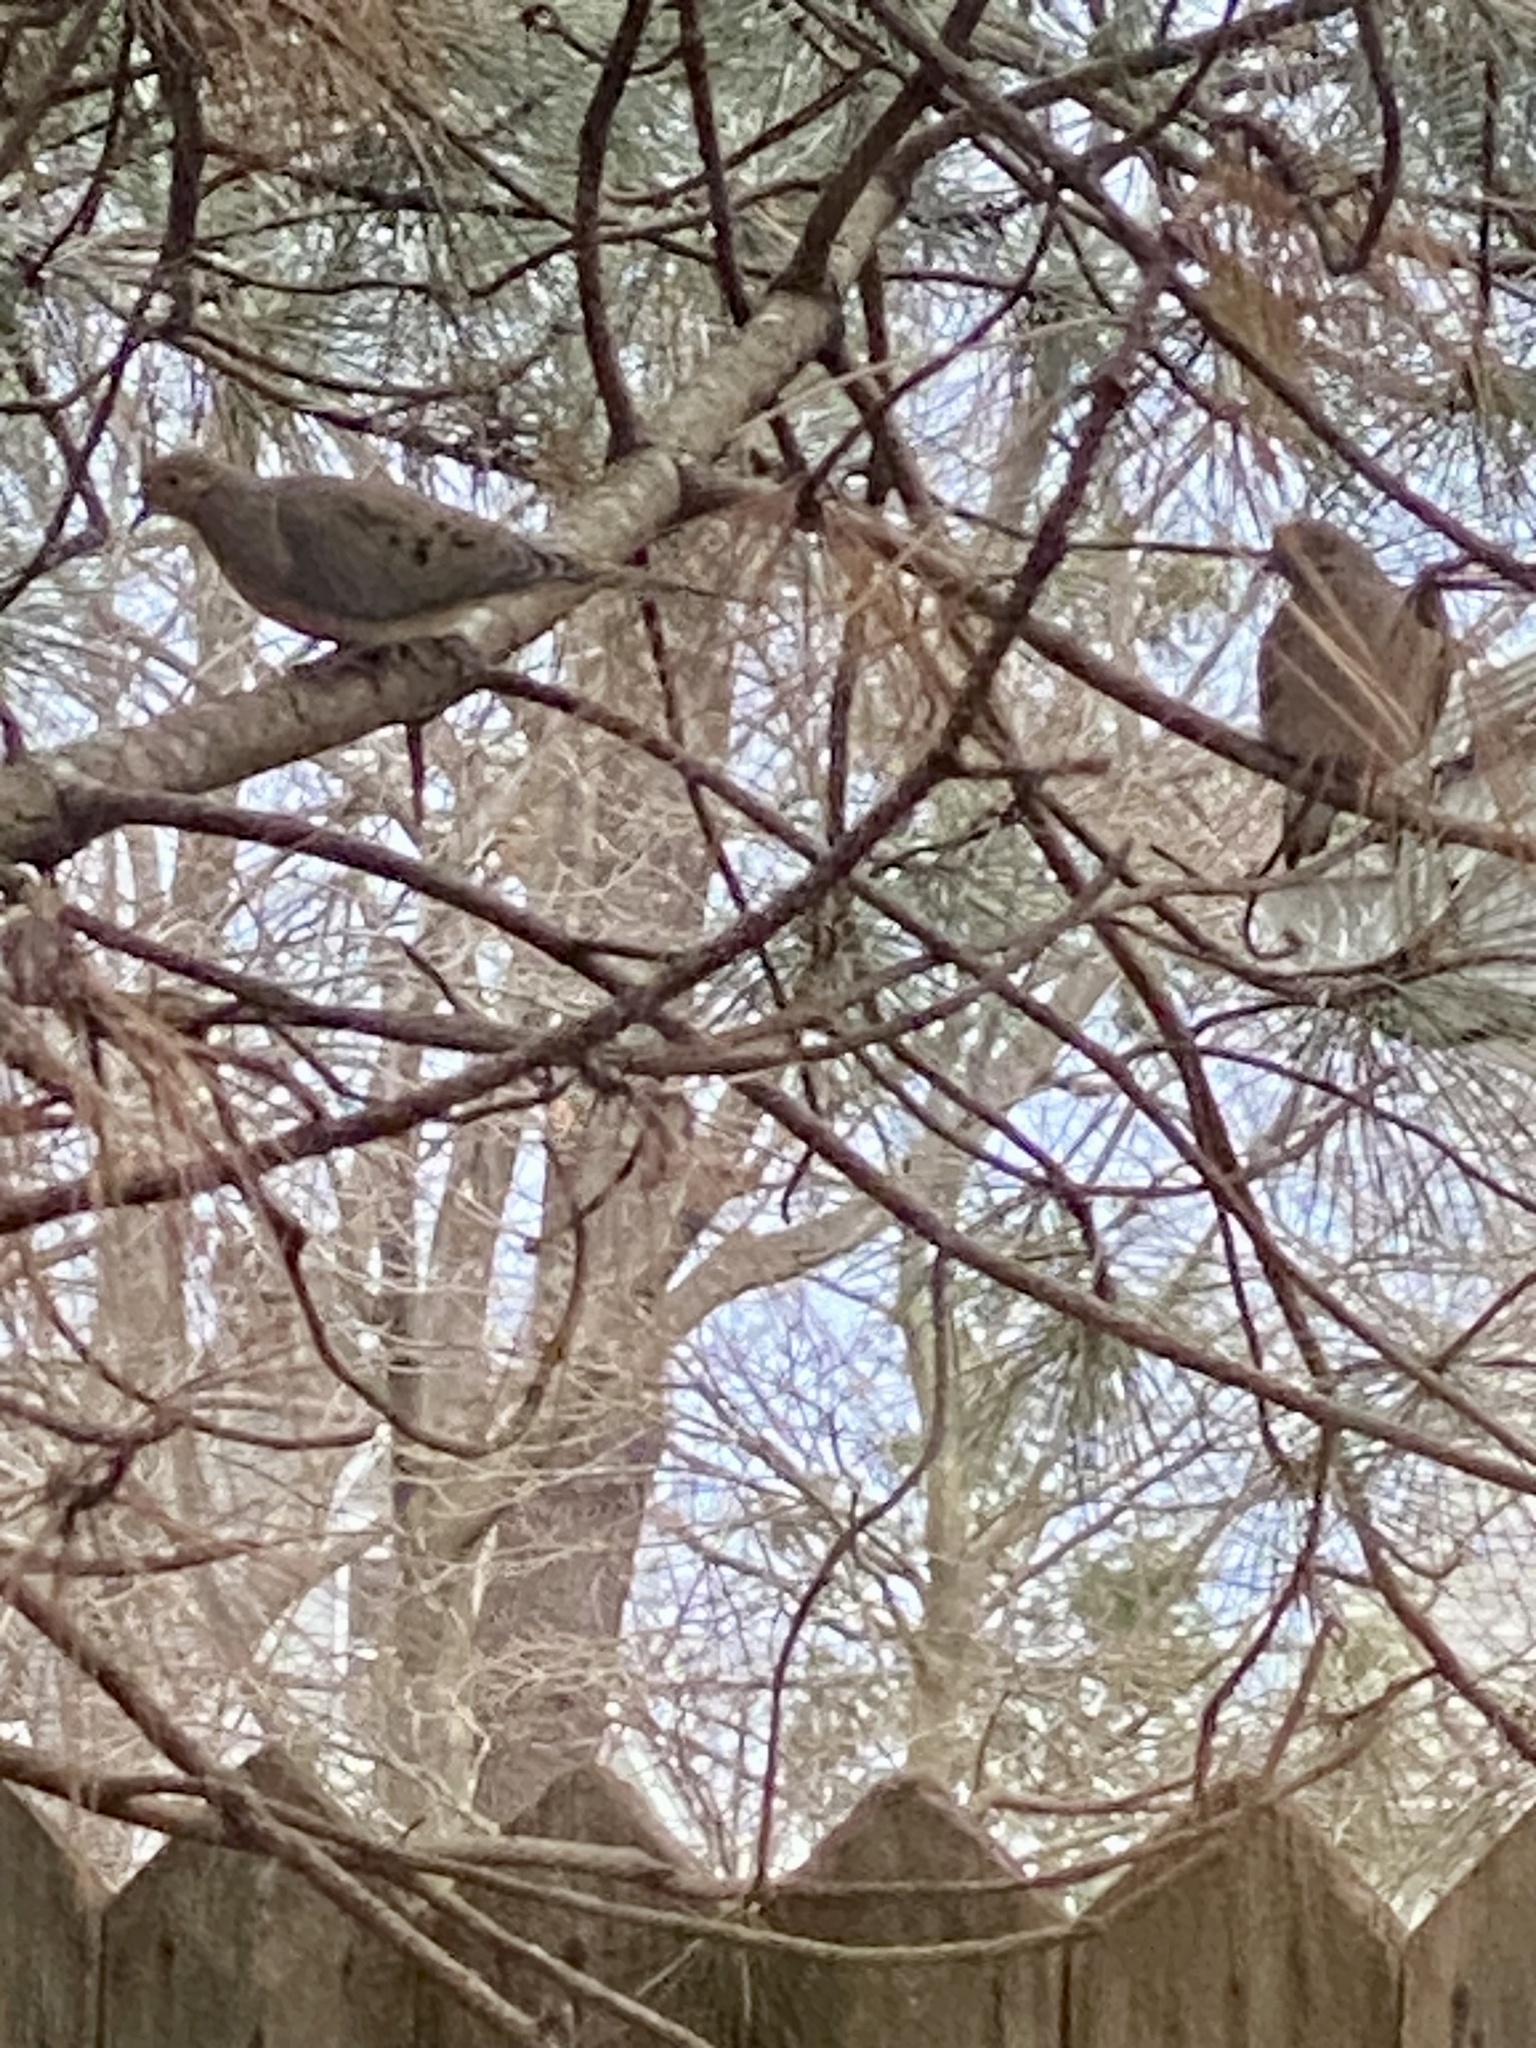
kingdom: Animalia
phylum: Chordata
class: Aves
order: Columbiformes
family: Columbidae
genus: Zenaida
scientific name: Zenaida macroura
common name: Mourning dove
